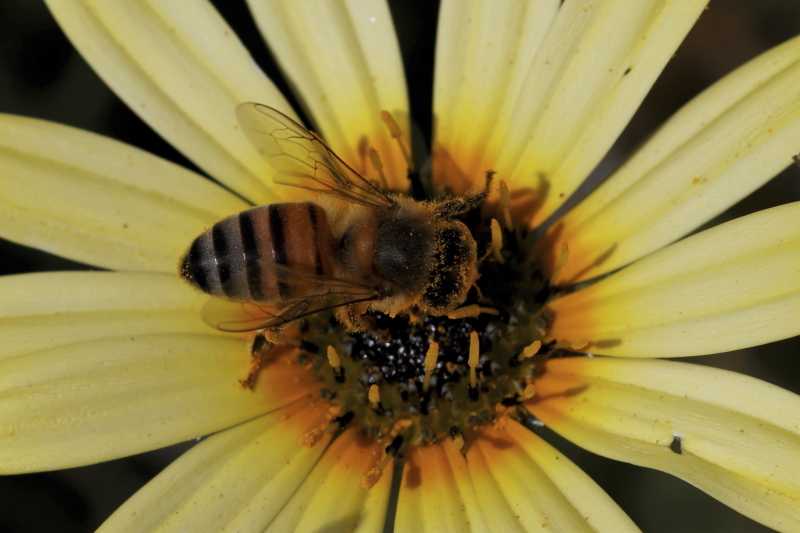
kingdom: Animalia
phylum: Arthropoda
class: Insecta
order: Hymenoptera
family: Apidae
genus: Apis
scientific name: Apis mellifera
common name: Honey bee
